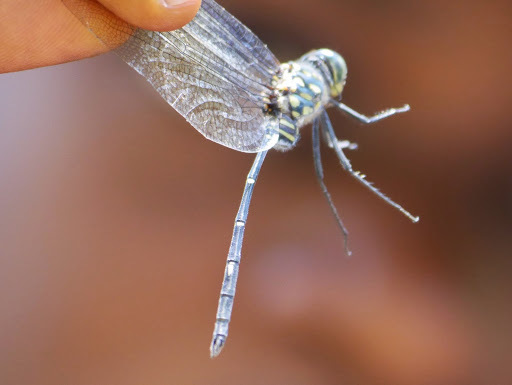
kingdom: Animalia
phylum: Arthropoda
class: Insecta
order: Odonata
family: Libellulidae
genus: Olpogastra
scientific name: Olpogastra lugubris
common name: Bottletail
